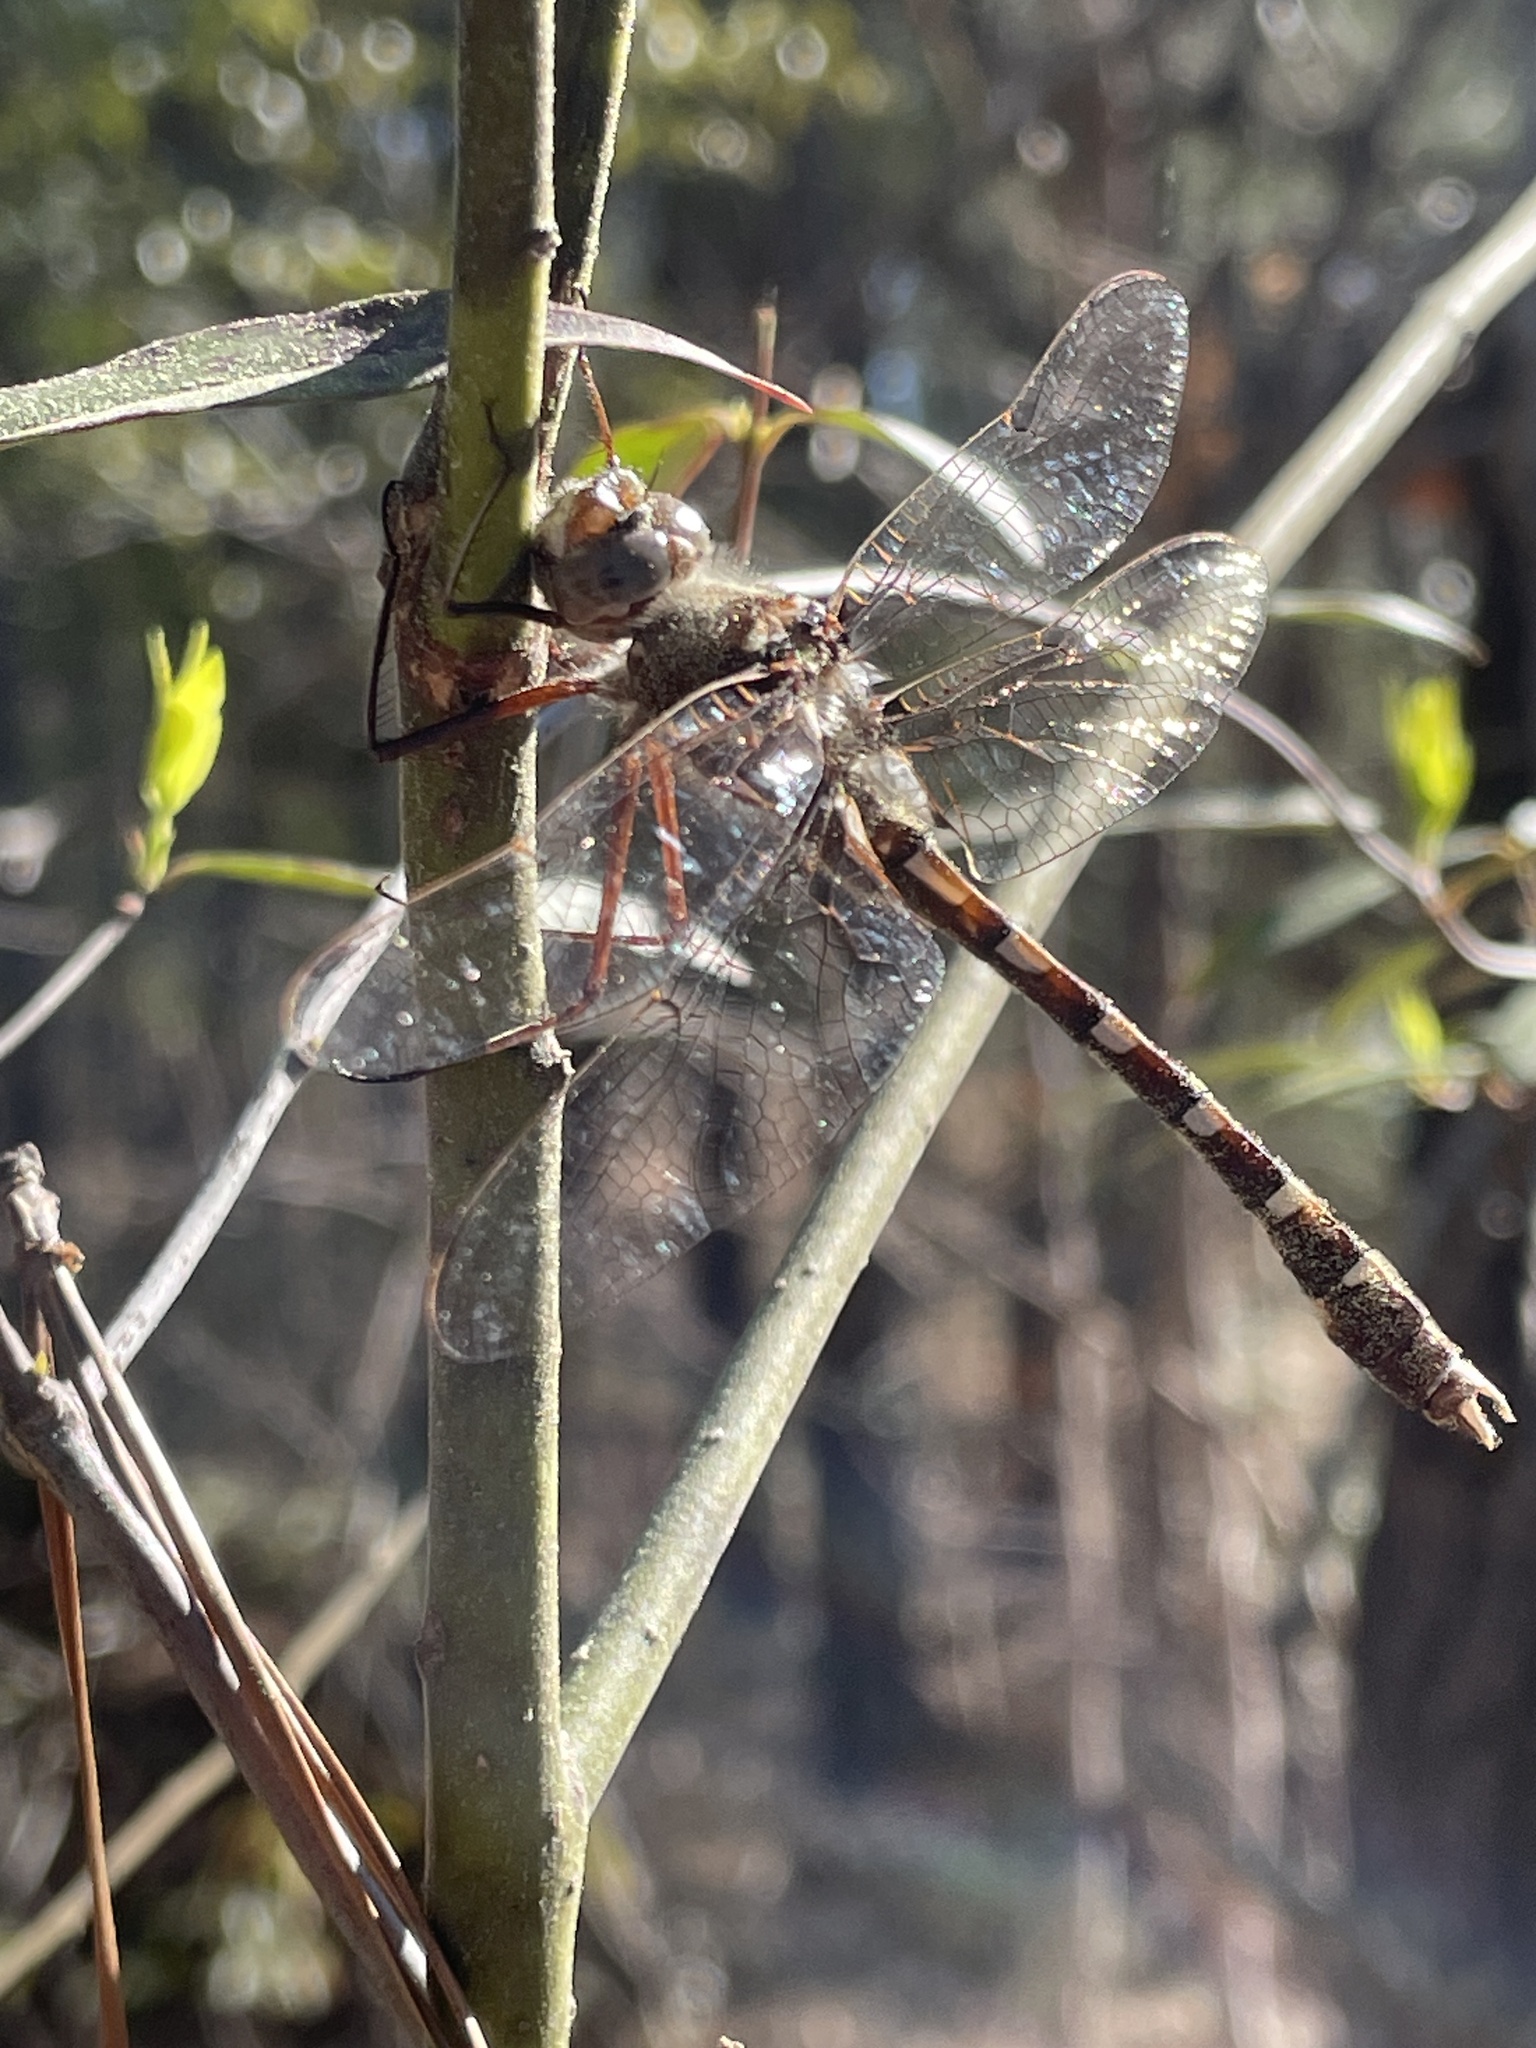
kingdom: Animalia
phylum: Arthropoda
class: Insecta
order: Odonata
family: Macromiidae
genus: Didymops
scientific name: Didymops transversa
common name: Stream cruiser
